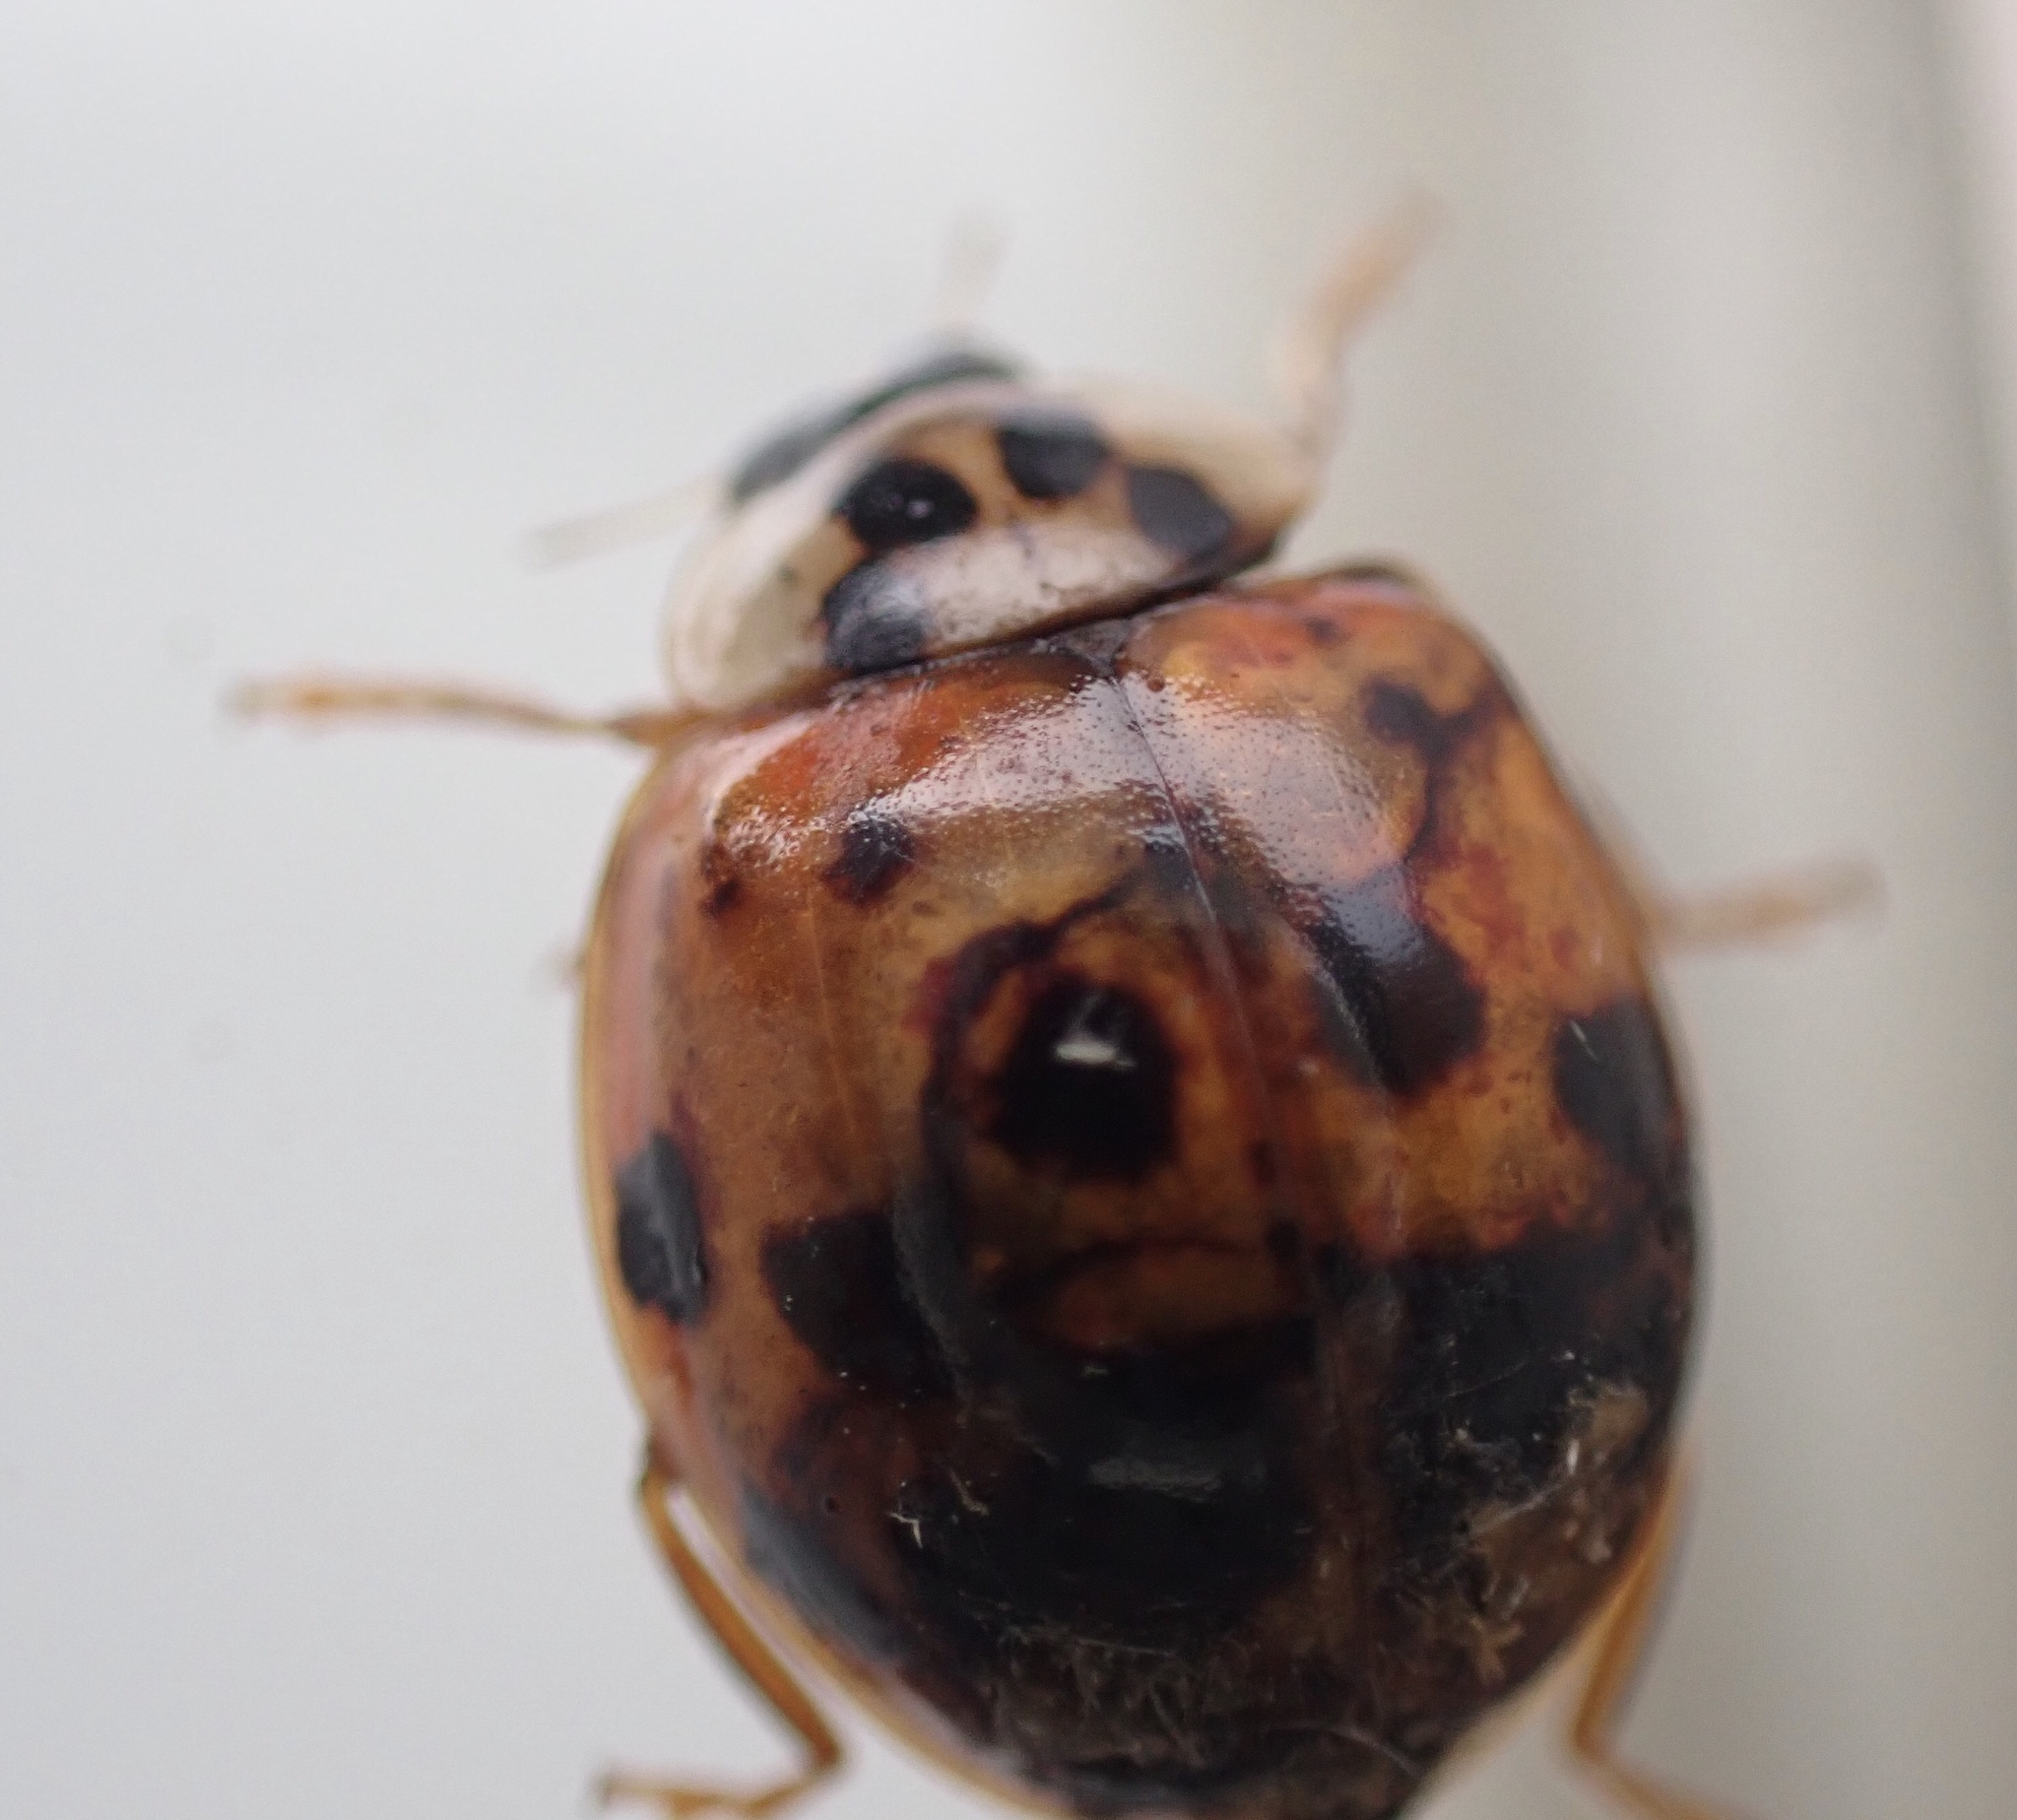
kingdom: Animalia
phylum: Arthropoda
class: Insecta
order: Coleoptera
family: Coccinellidae
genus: Harmonia
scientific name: Harmonia axyridis
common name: Harlequin ladybird
